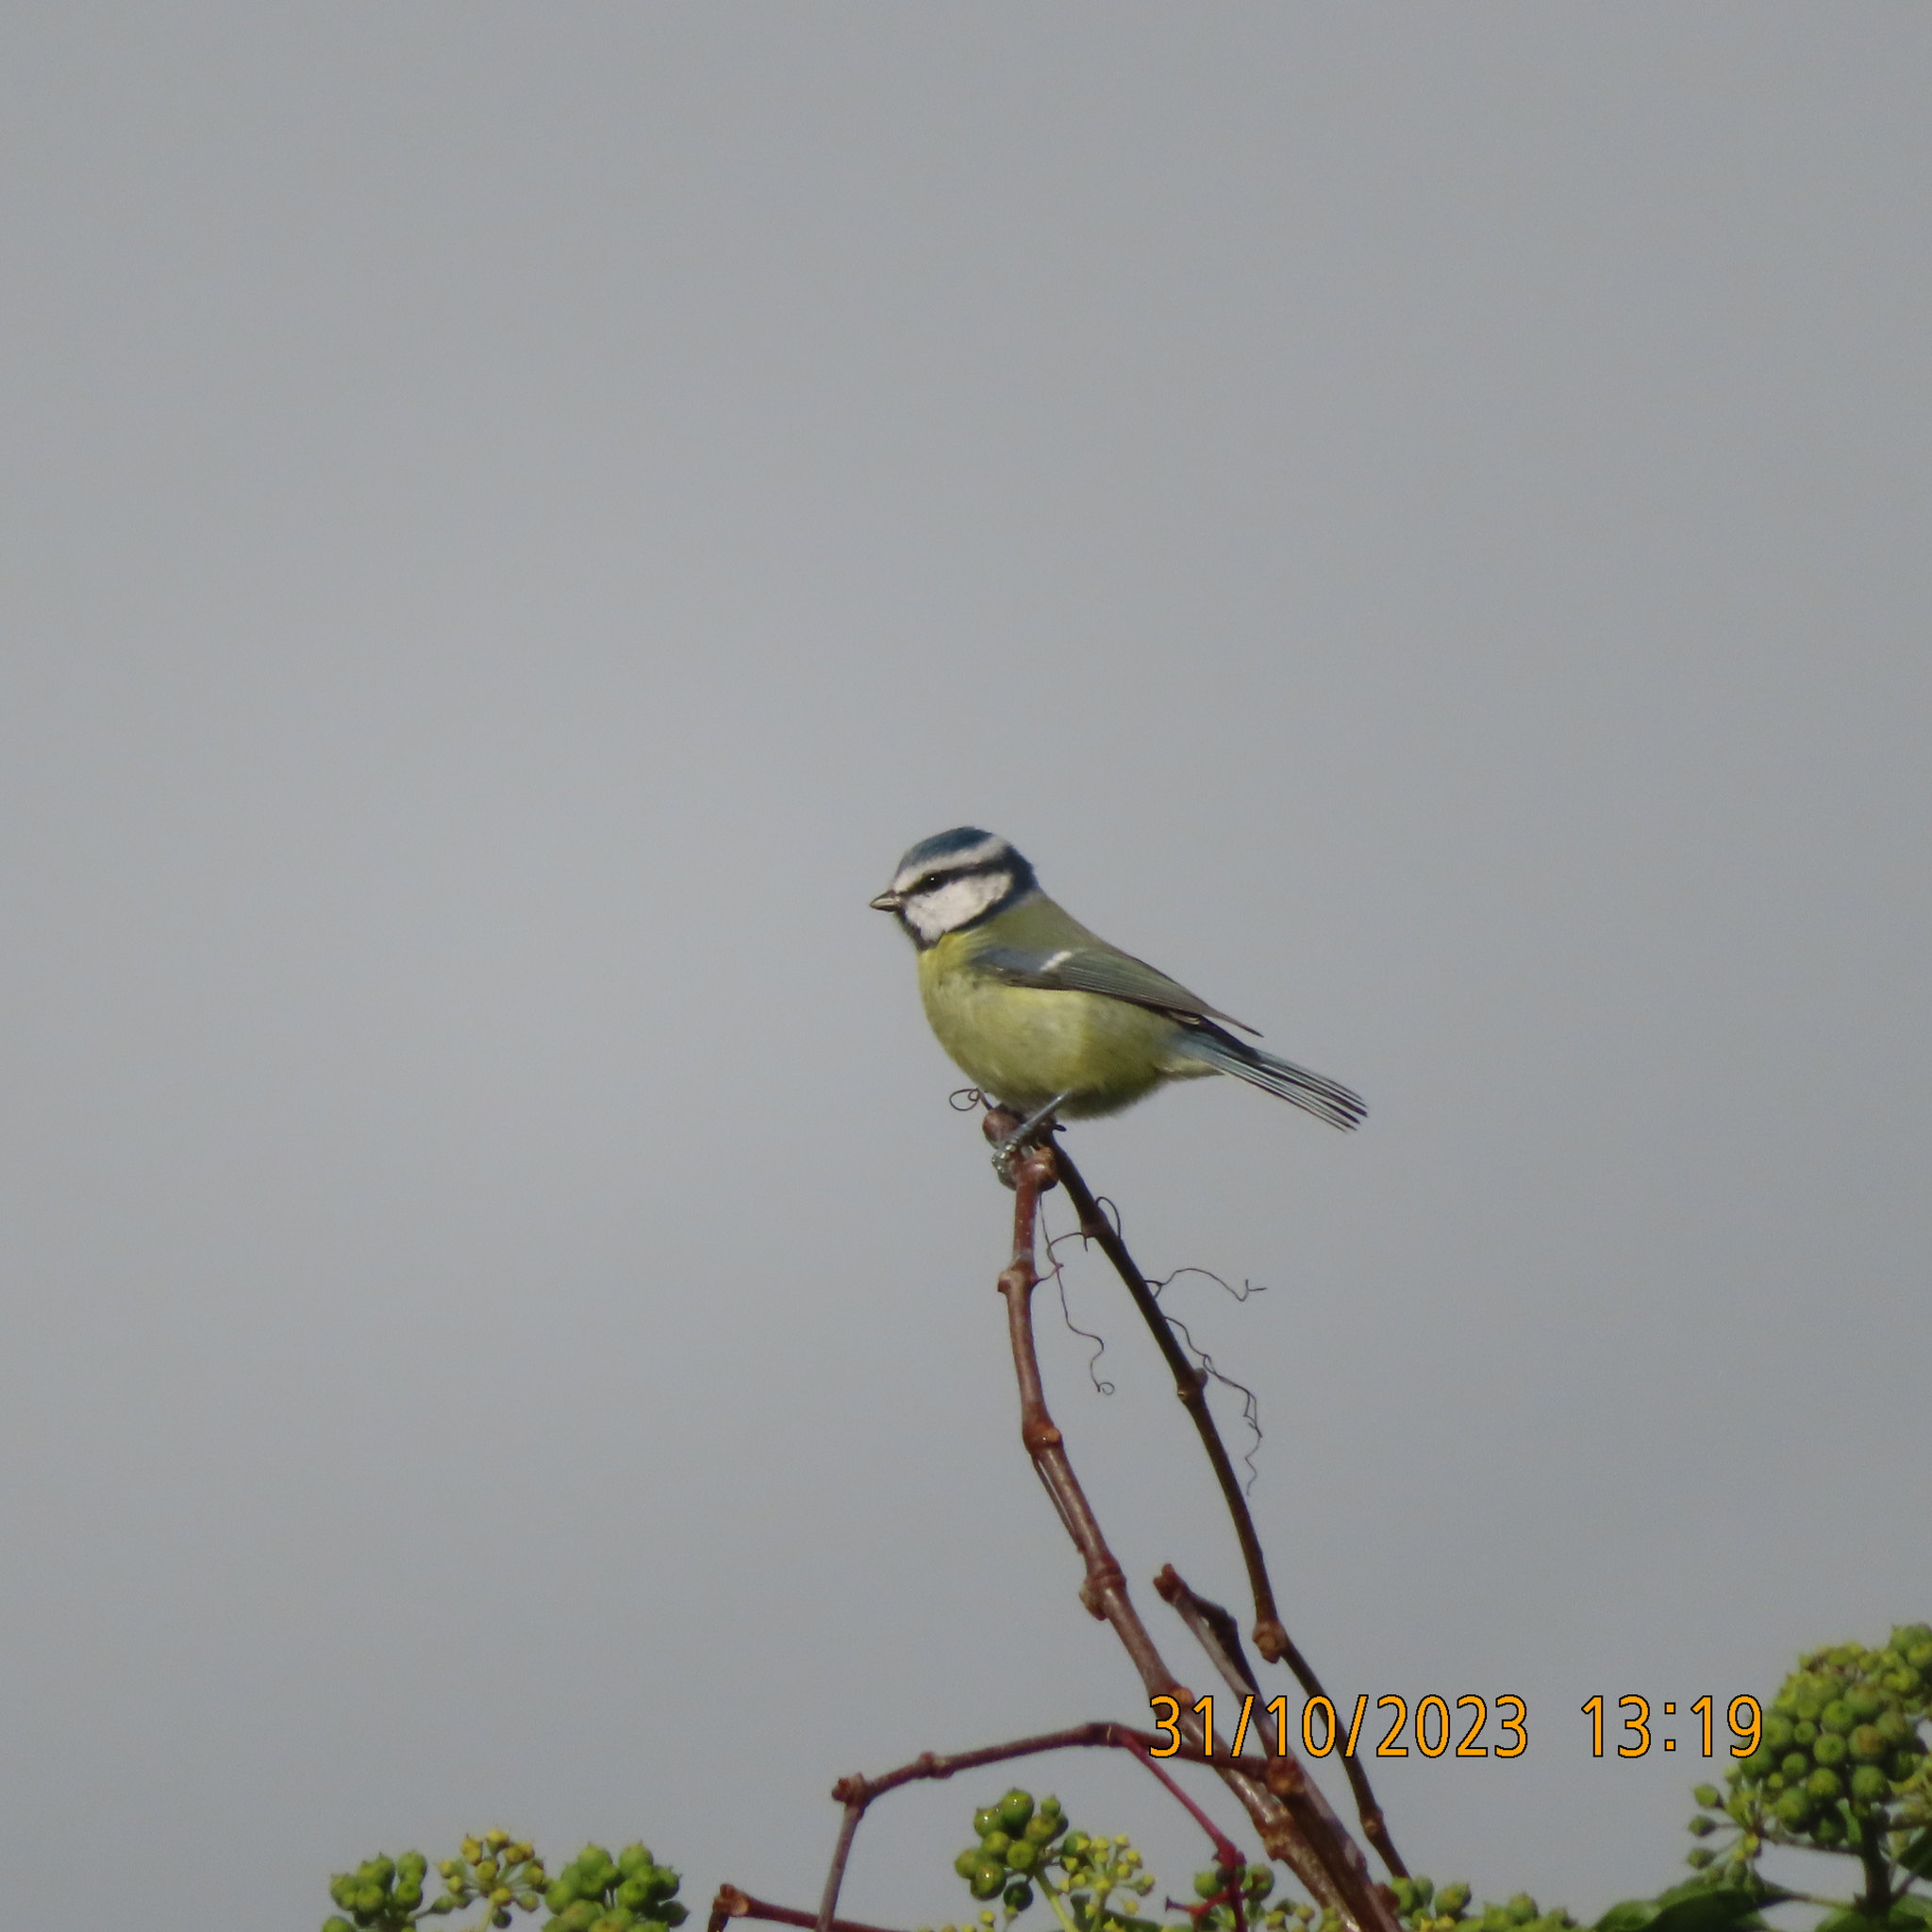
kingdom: Animalia
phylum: Chordata
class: Aves
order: Passeriformes
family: Paridae
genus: Cyanistes
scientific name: Cyanistes caeruleus
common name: Eurasian blue tit
